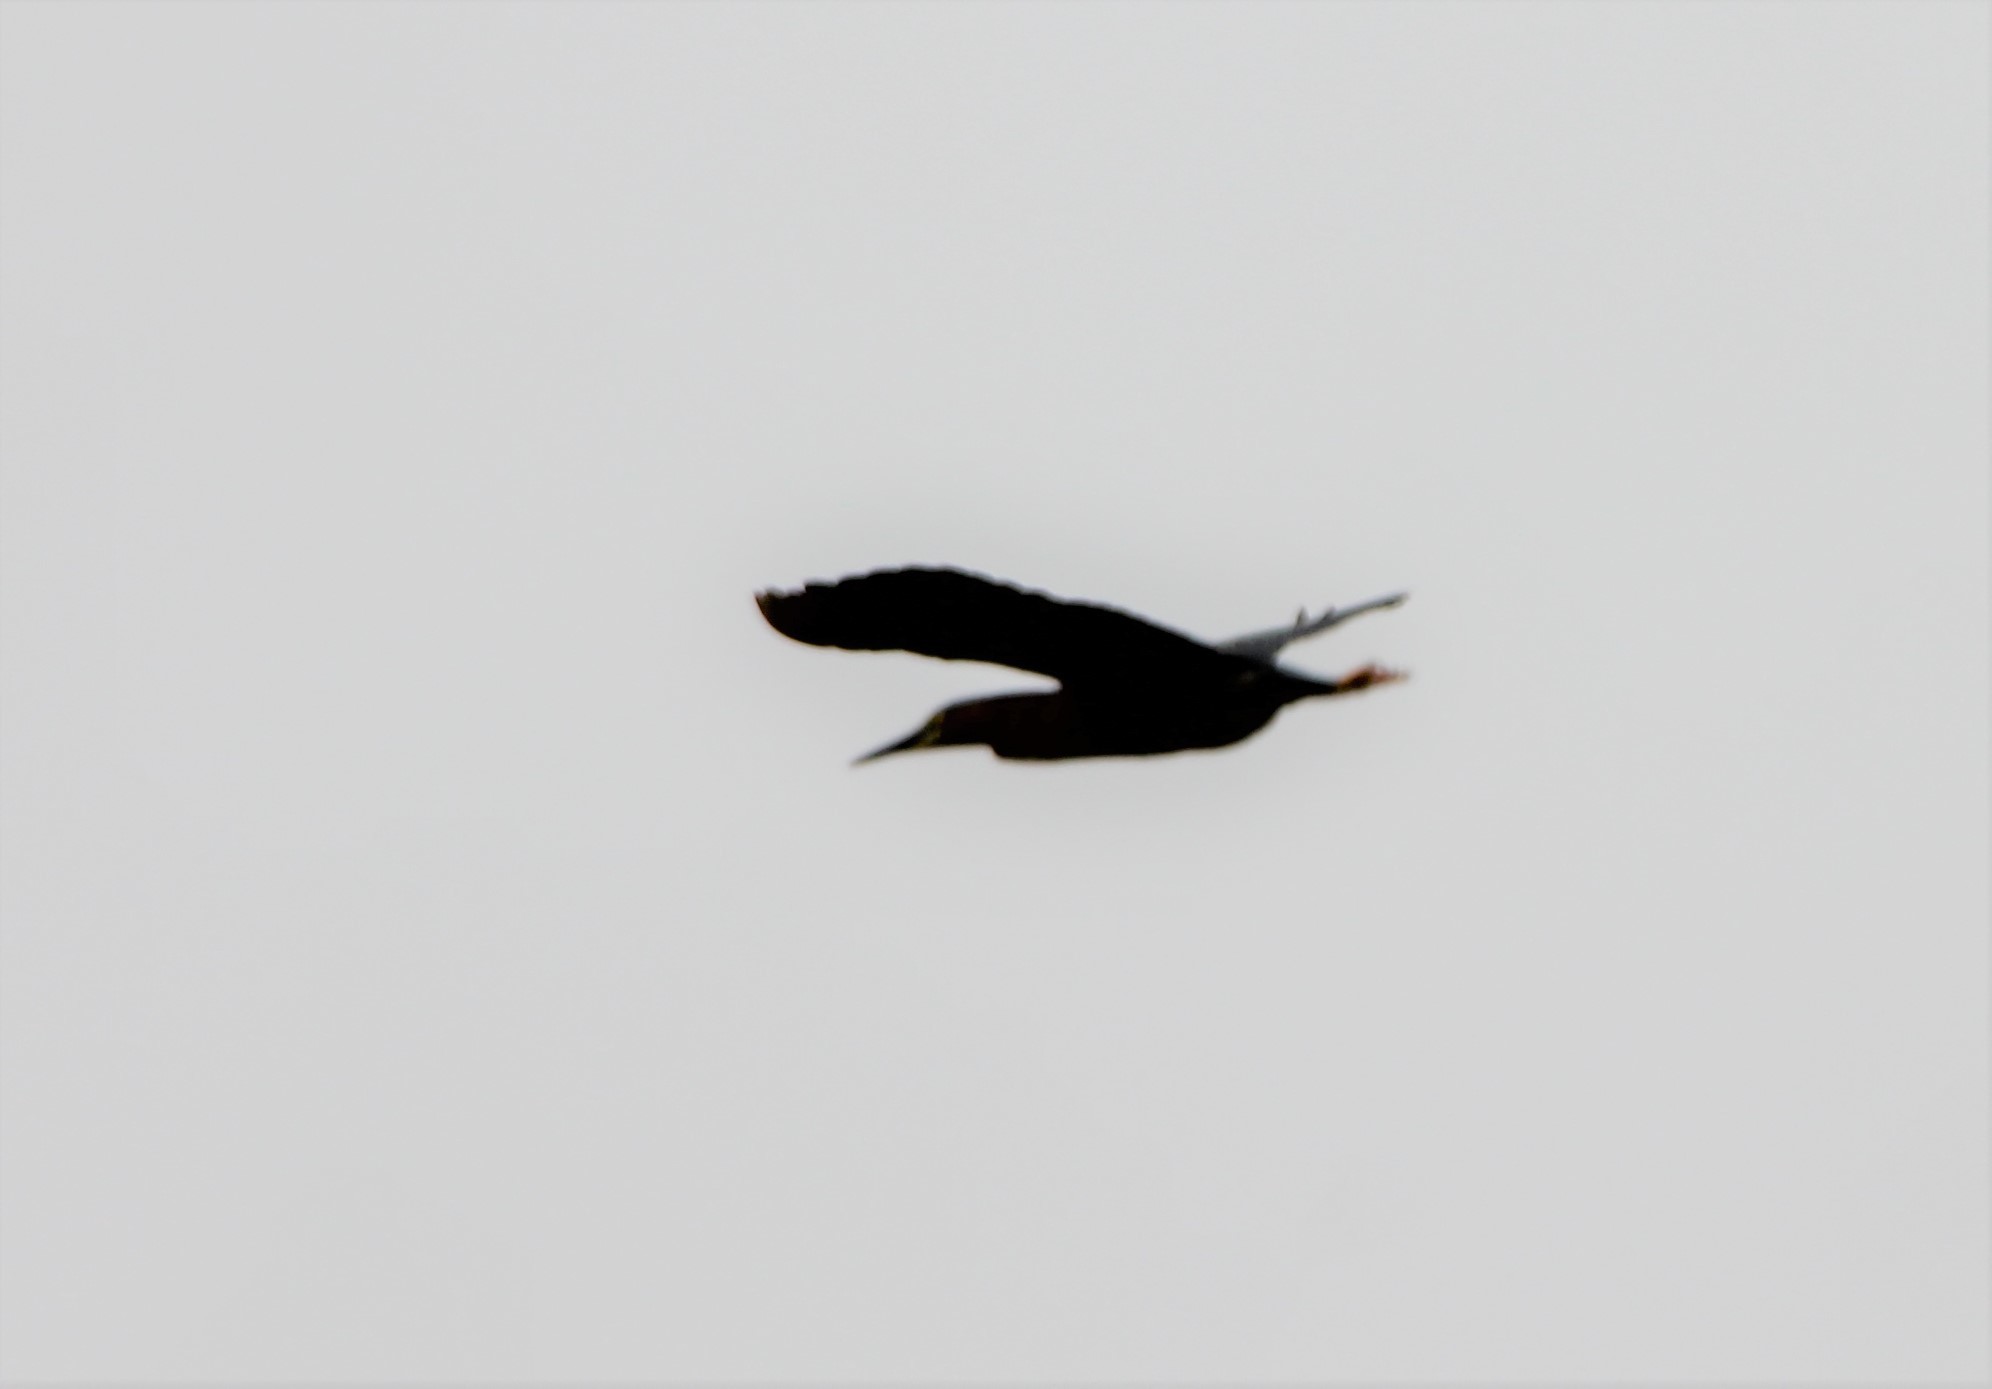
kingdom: Animalia
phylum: Chordata
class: Aves
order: Pelecaniformes
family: Ardeidae
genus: Butorides
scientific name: Butorides virescens
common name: Green heron
